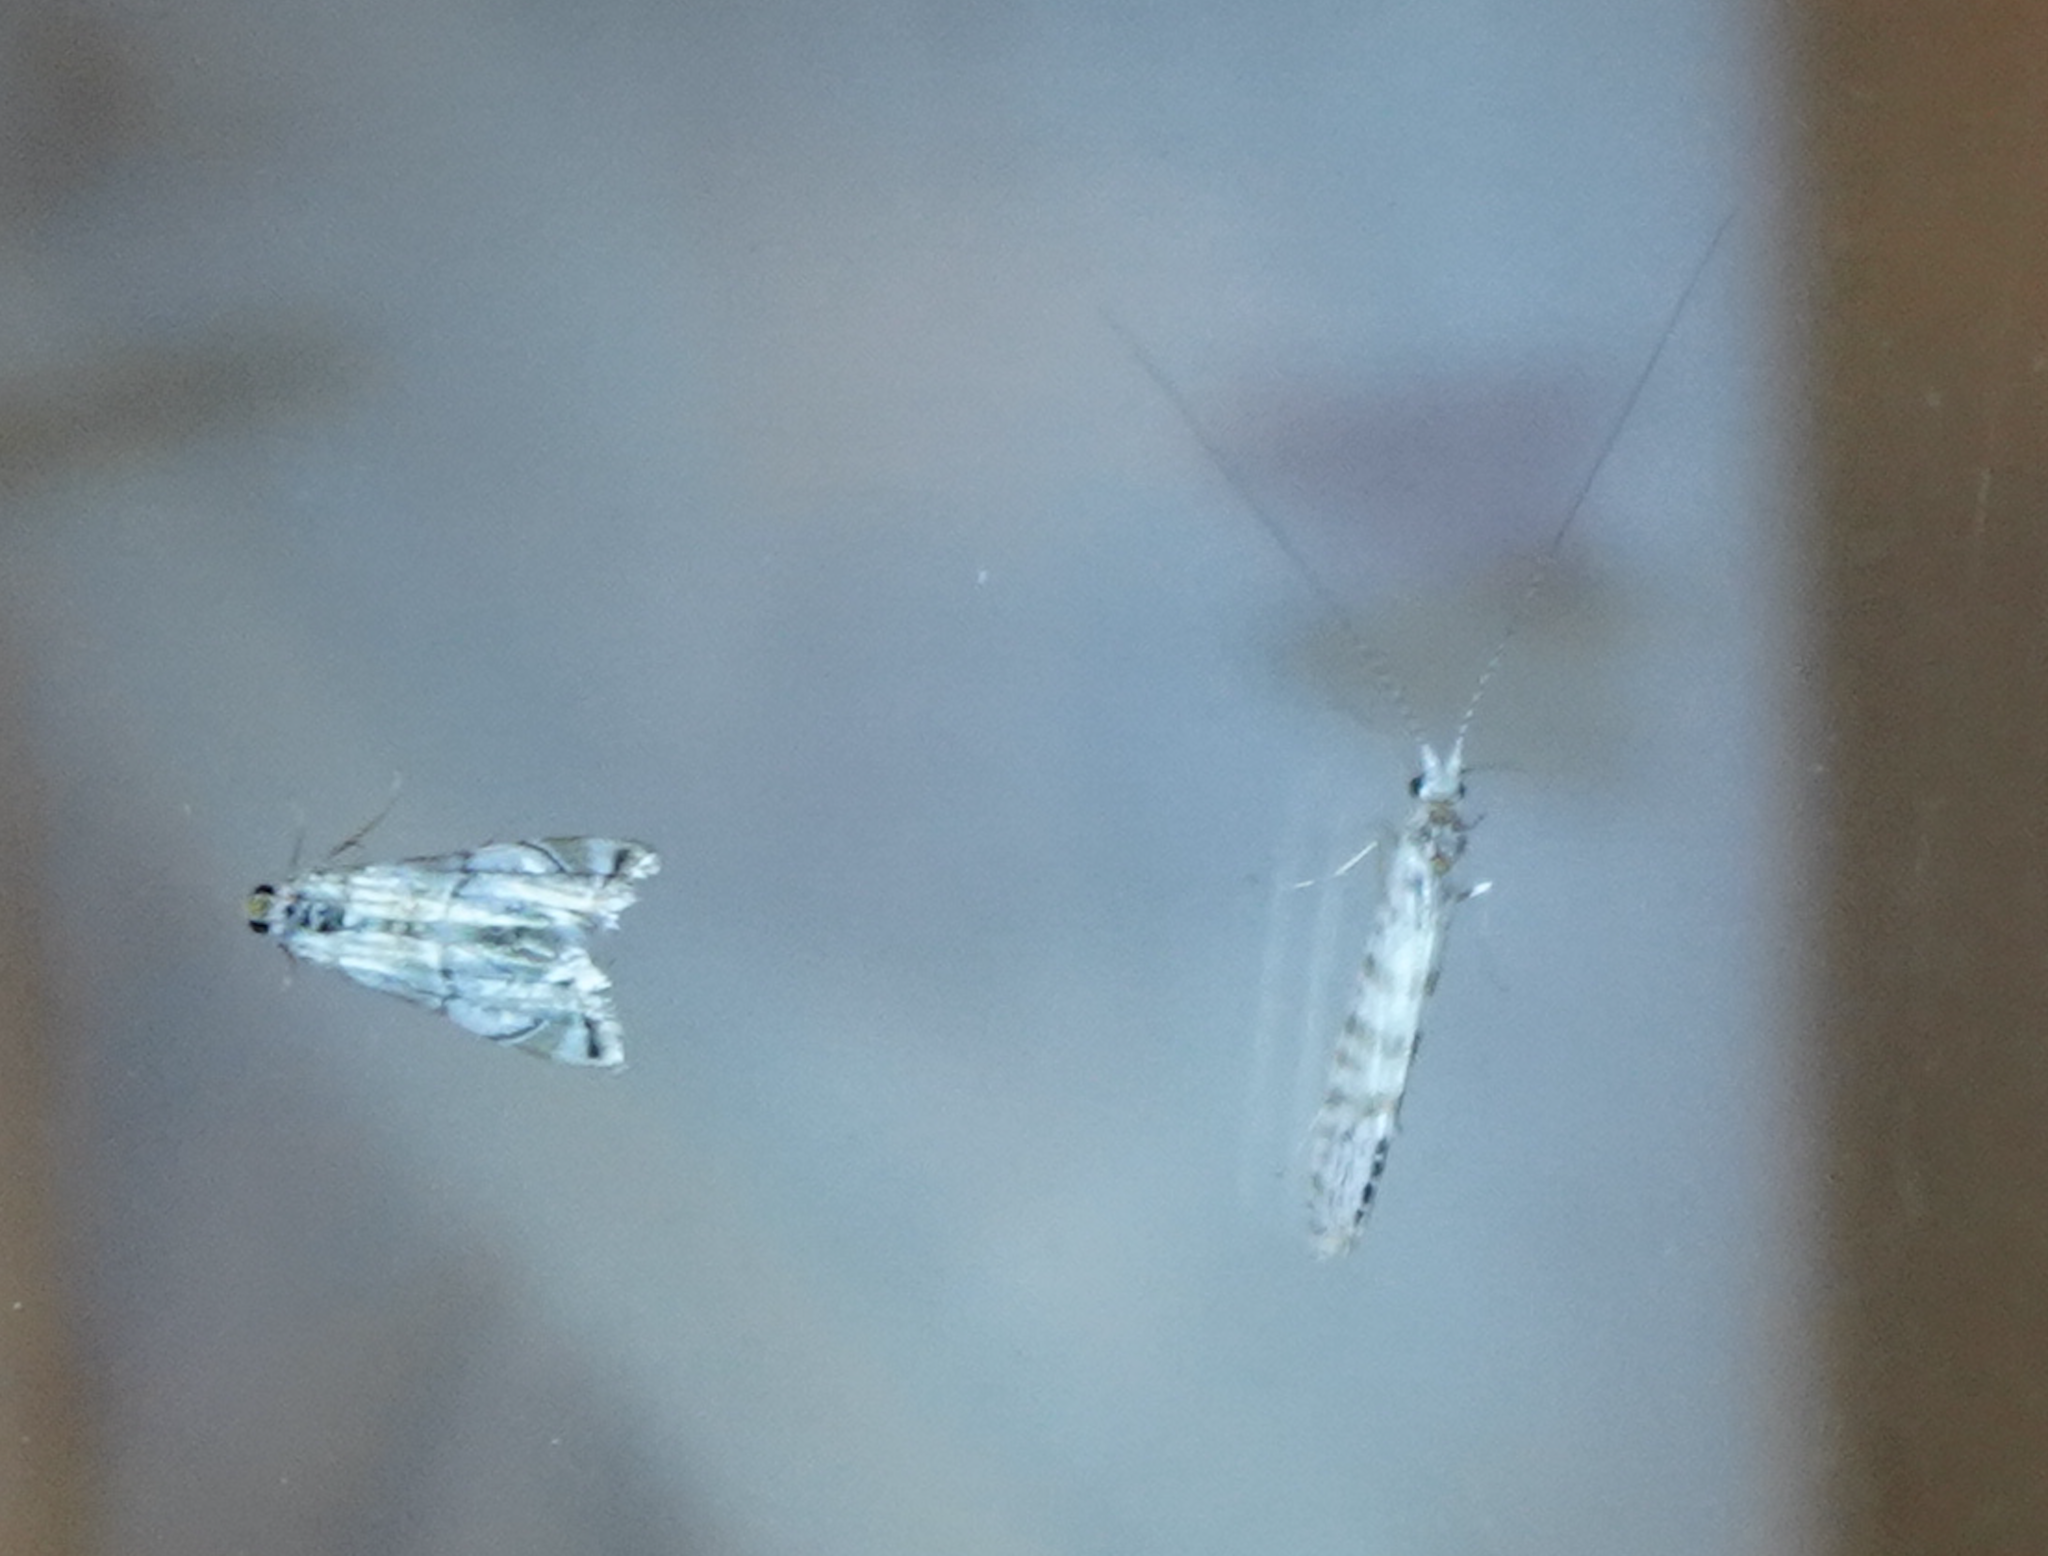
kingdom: Animalia
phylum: Arthropoda
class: Insecta
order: Trichoptera
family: Leptoceridae
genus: Nectopsyche
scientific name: Nectopsyche exquisita
